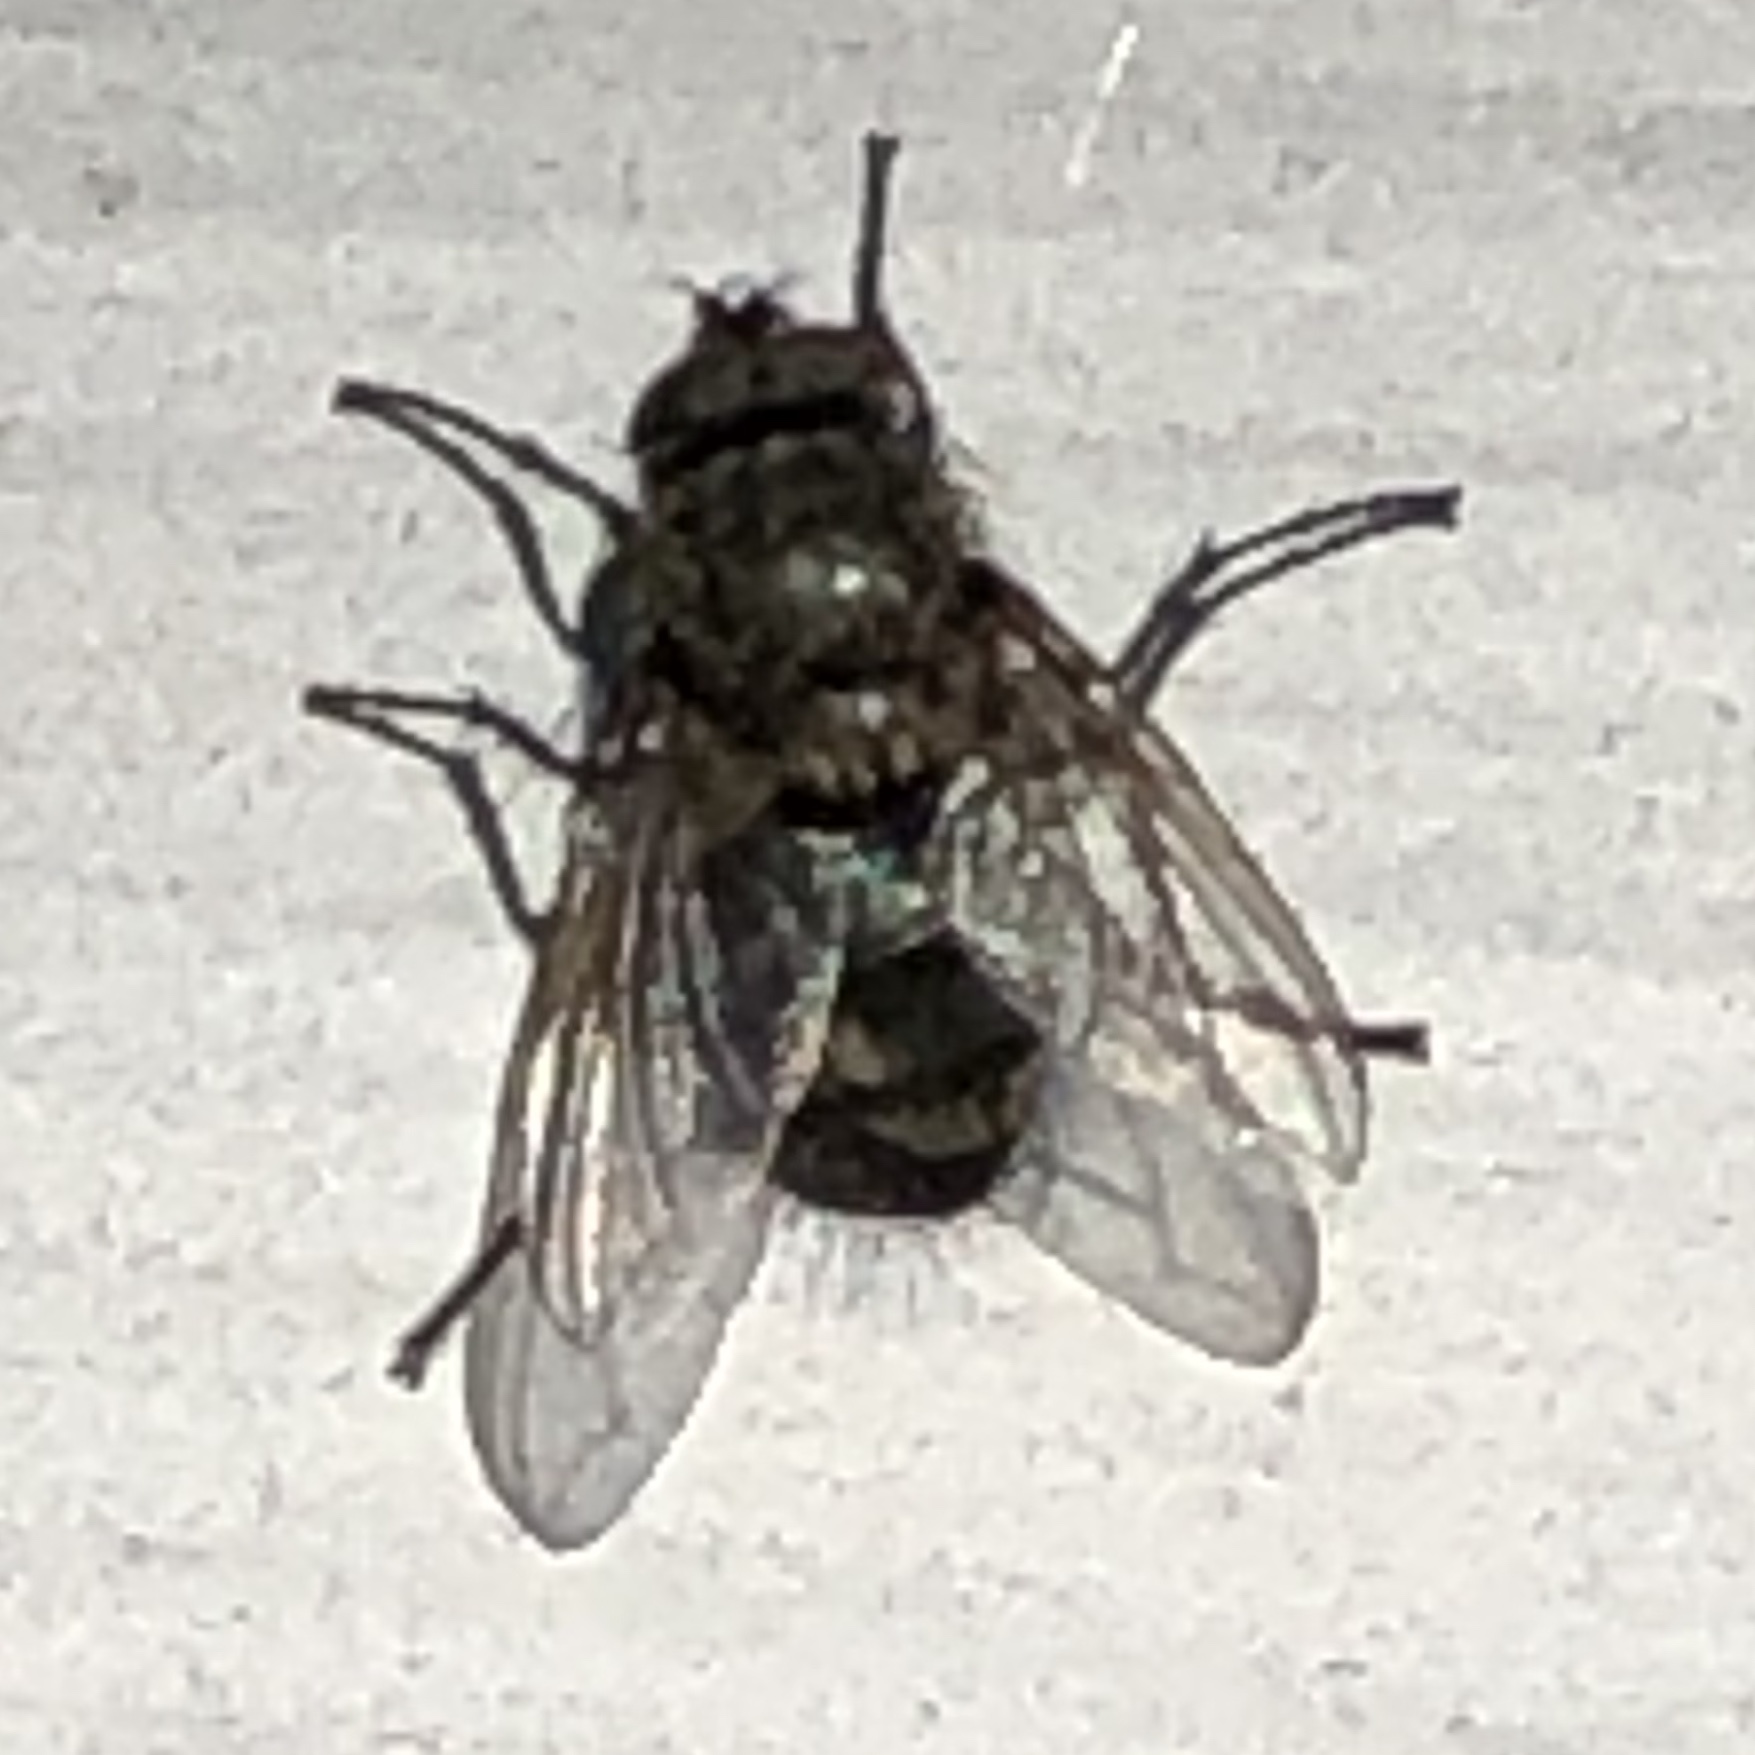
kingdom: Animalia
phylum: Arthropoda
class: Insecta
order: Diptera
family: Polleniidae
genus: Pollenia
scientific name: Pollenia
